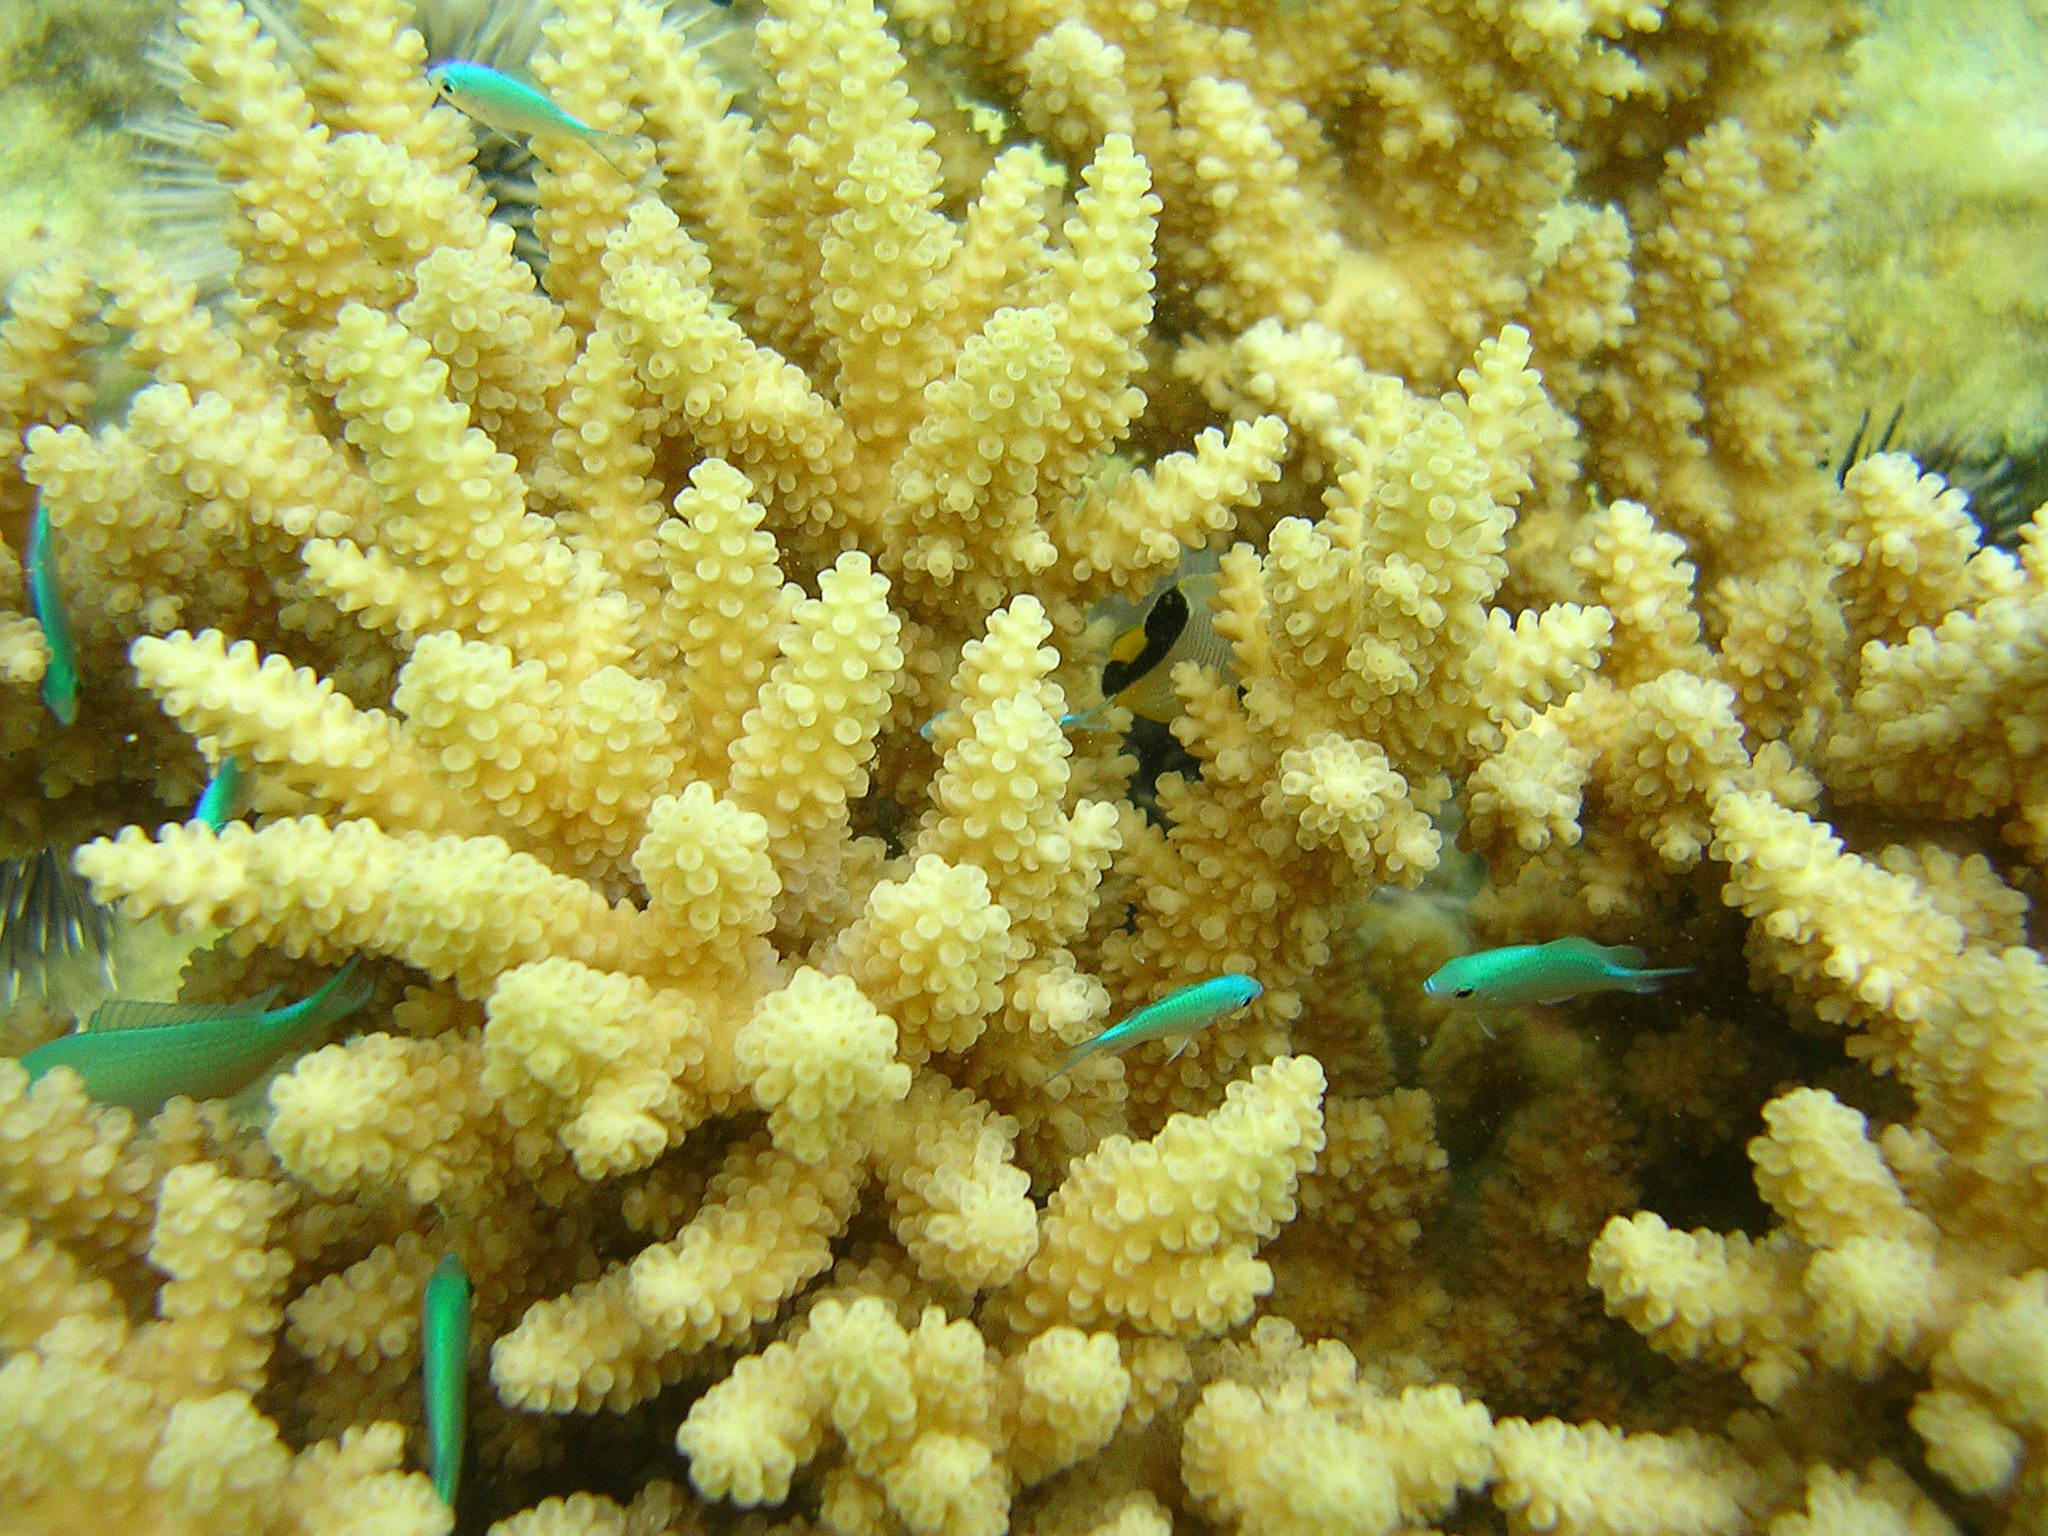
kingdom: Animalia
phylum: Chordata
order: Perciformes
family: Pomacentridae
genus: Chromis
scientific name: Chromis viridis
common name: Blue-green chromis
